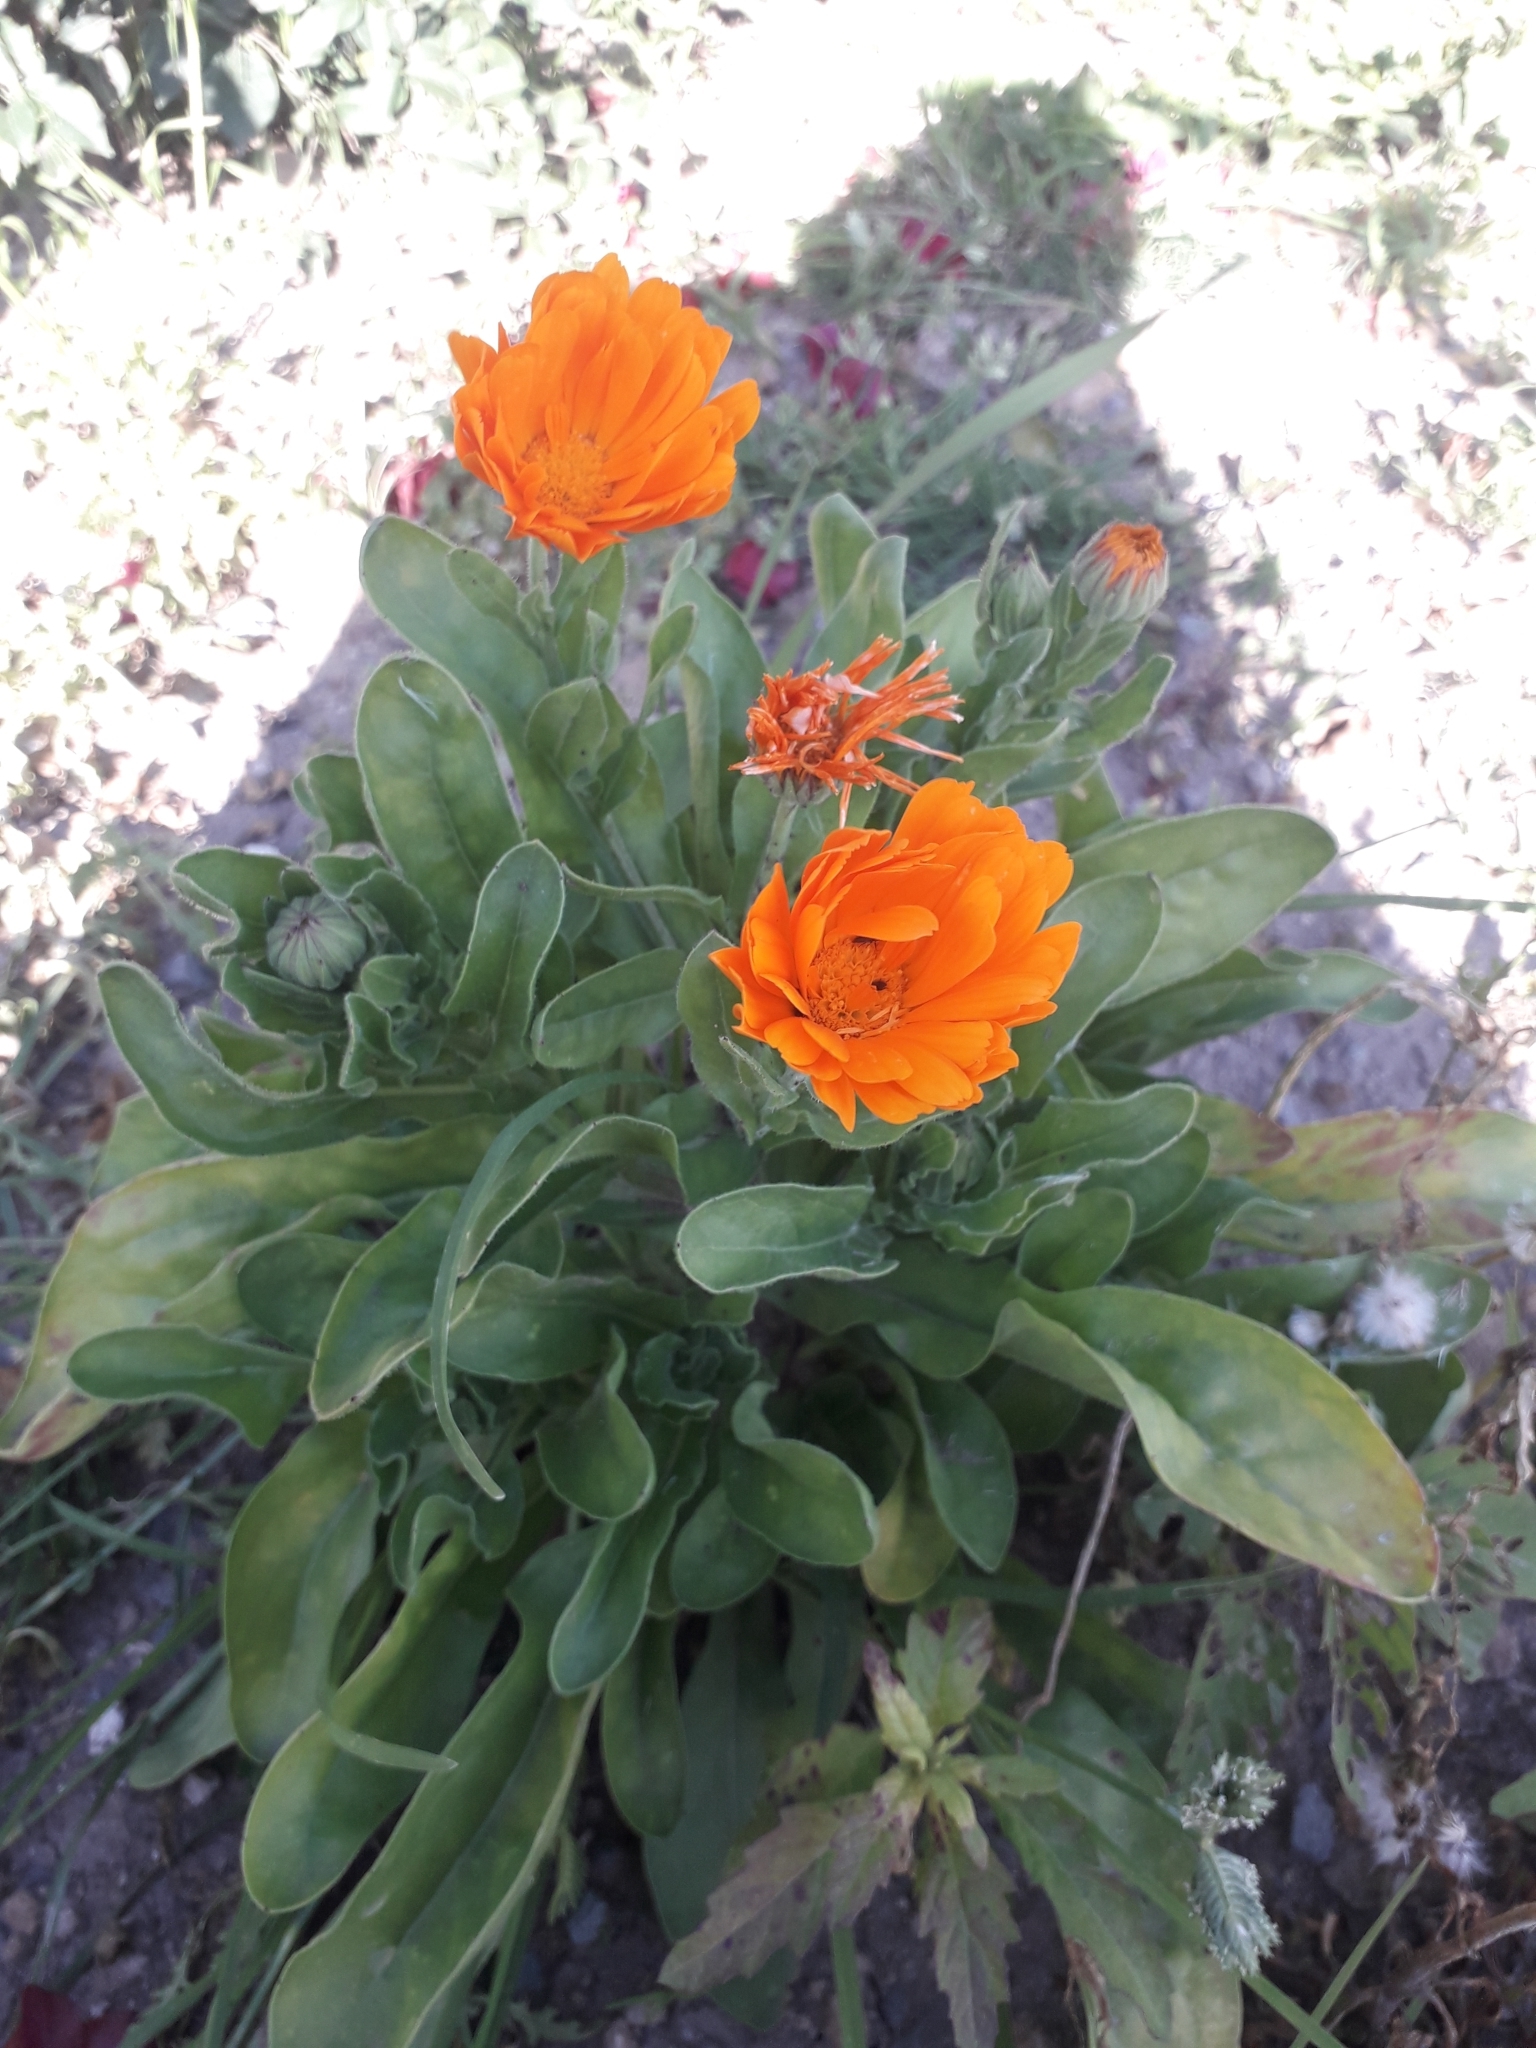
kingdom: Plantae
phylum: Tracheophyta
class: Magnoliopsida
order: Asterales
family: Asteraceae
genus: Calendula
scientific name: Calendula officinalis
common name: Pot marigold
